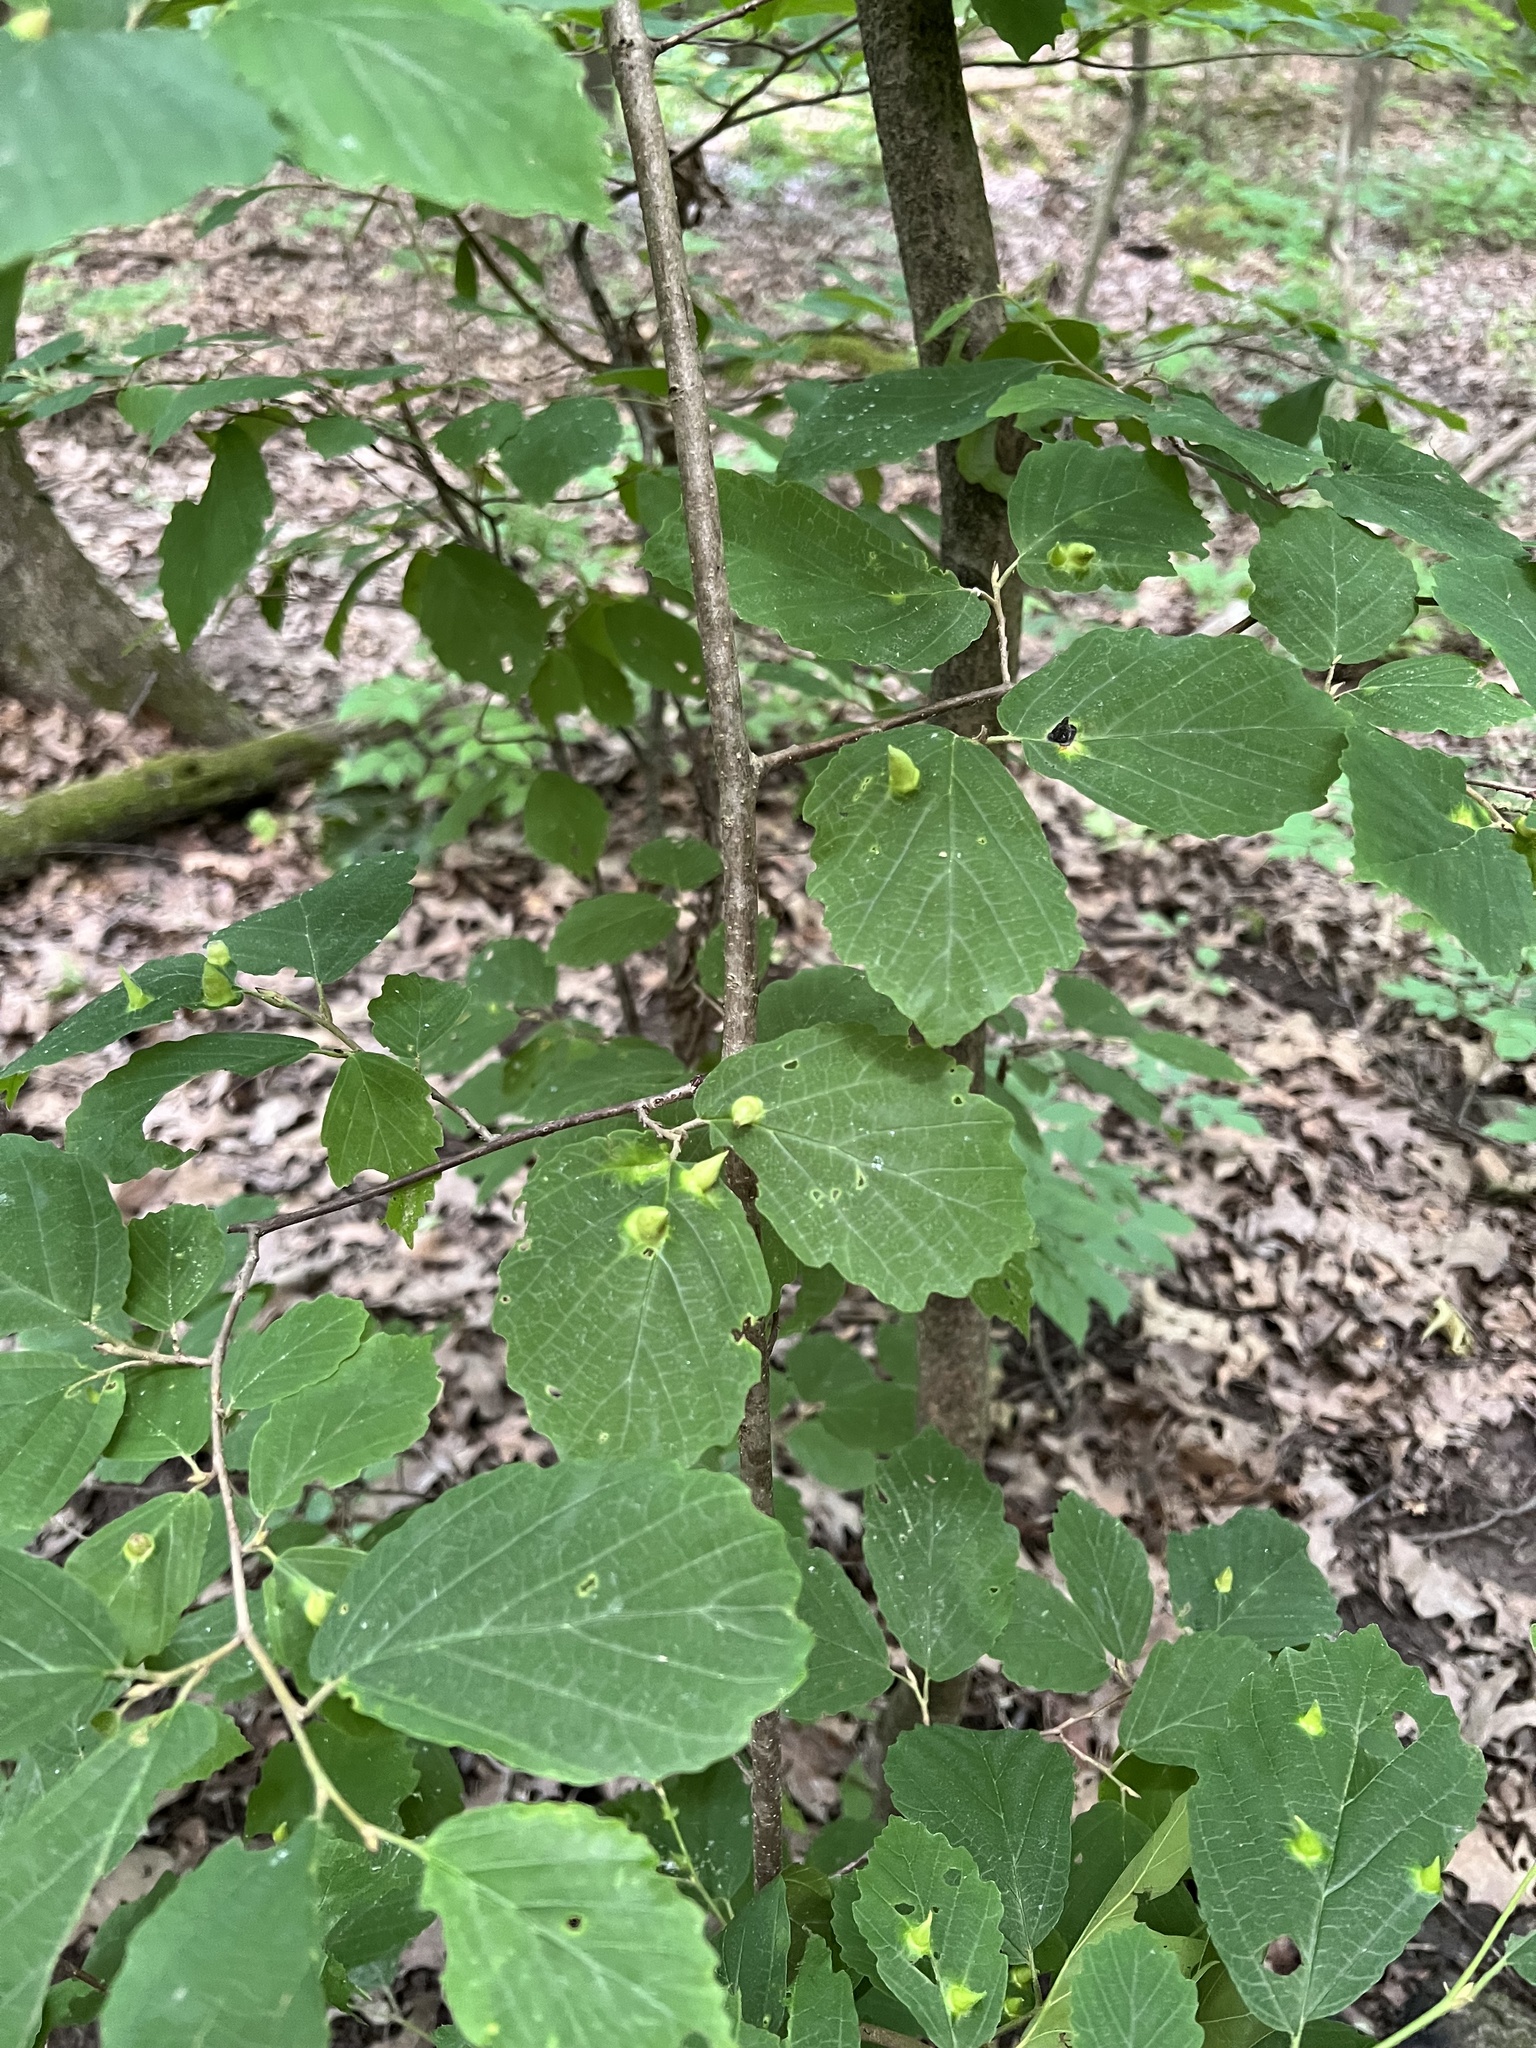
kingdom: Animalia
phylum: Arthropoda
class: Insecta
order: Hemiptera
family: Aphididae
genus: Hormaphis
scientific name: Hormaphis hamamelidis
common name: Witch-hazel cone gall aphid
